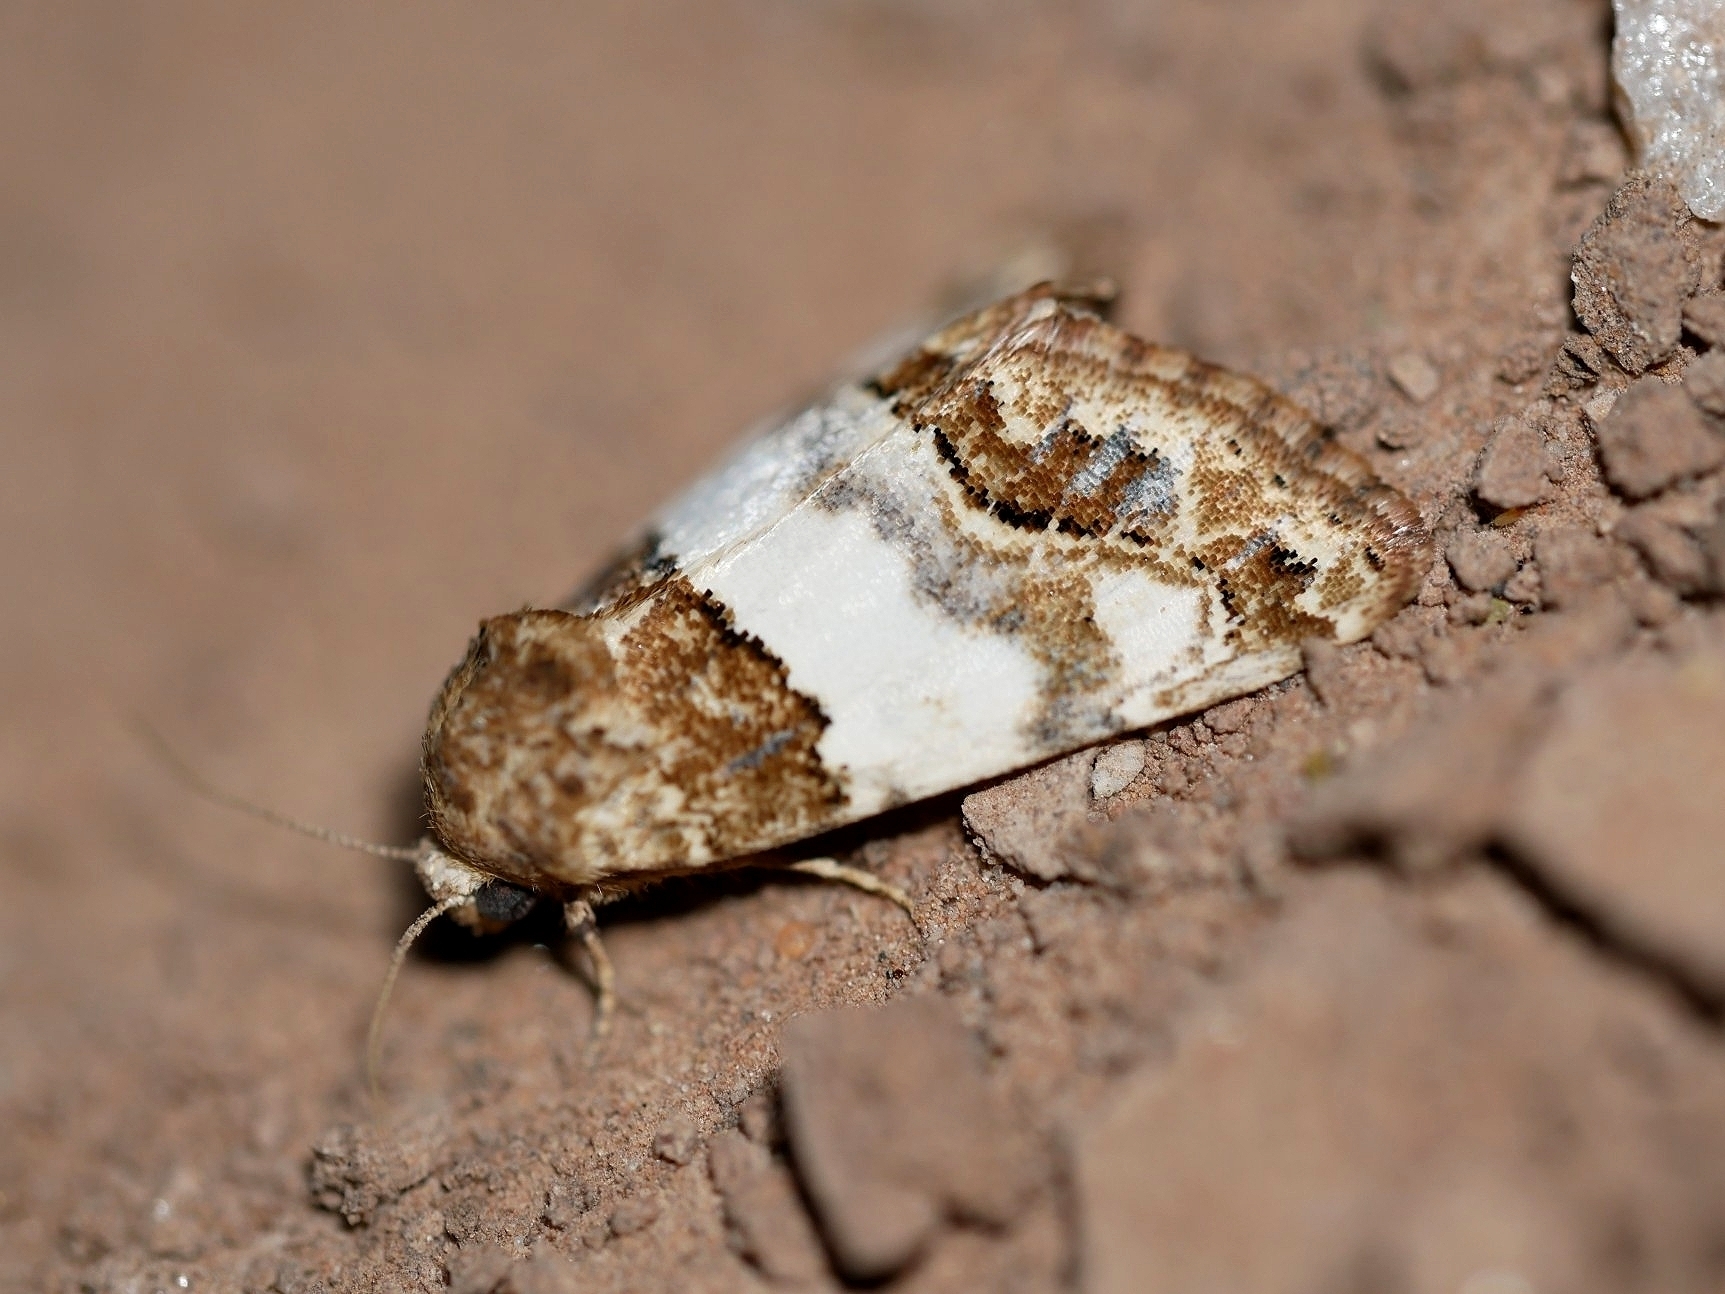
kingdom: Animalia
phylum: Arthropoda
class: Insecta
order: Lepidoptera
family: Noctuidae
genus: Schinia
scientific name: Schinia albafascia
